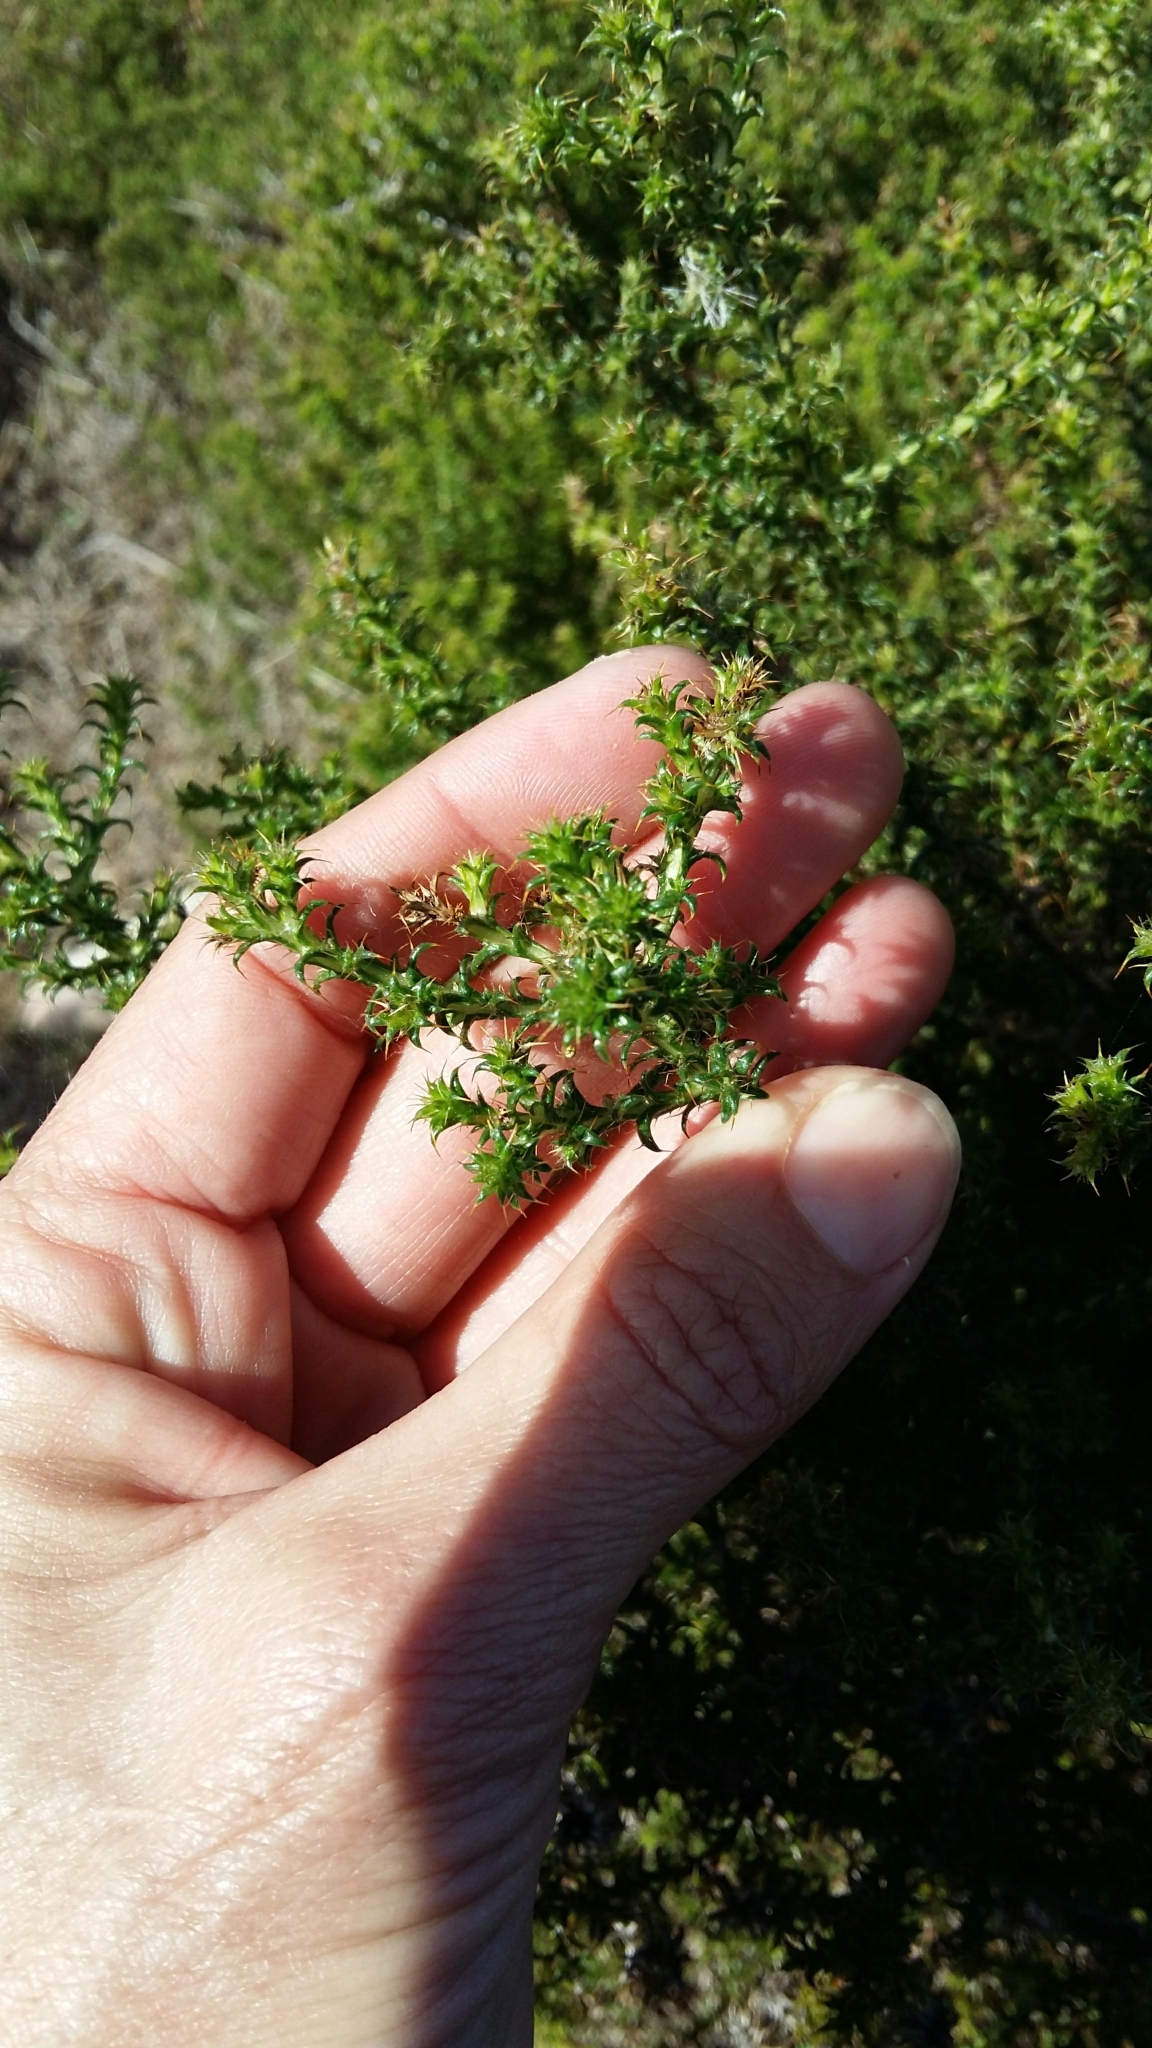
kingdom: Plantae
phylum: Tracheophyta
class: Magnoliopsida
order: Asterales
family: Asteraceae
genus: Cullumia
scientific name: Cullumia decurrens
